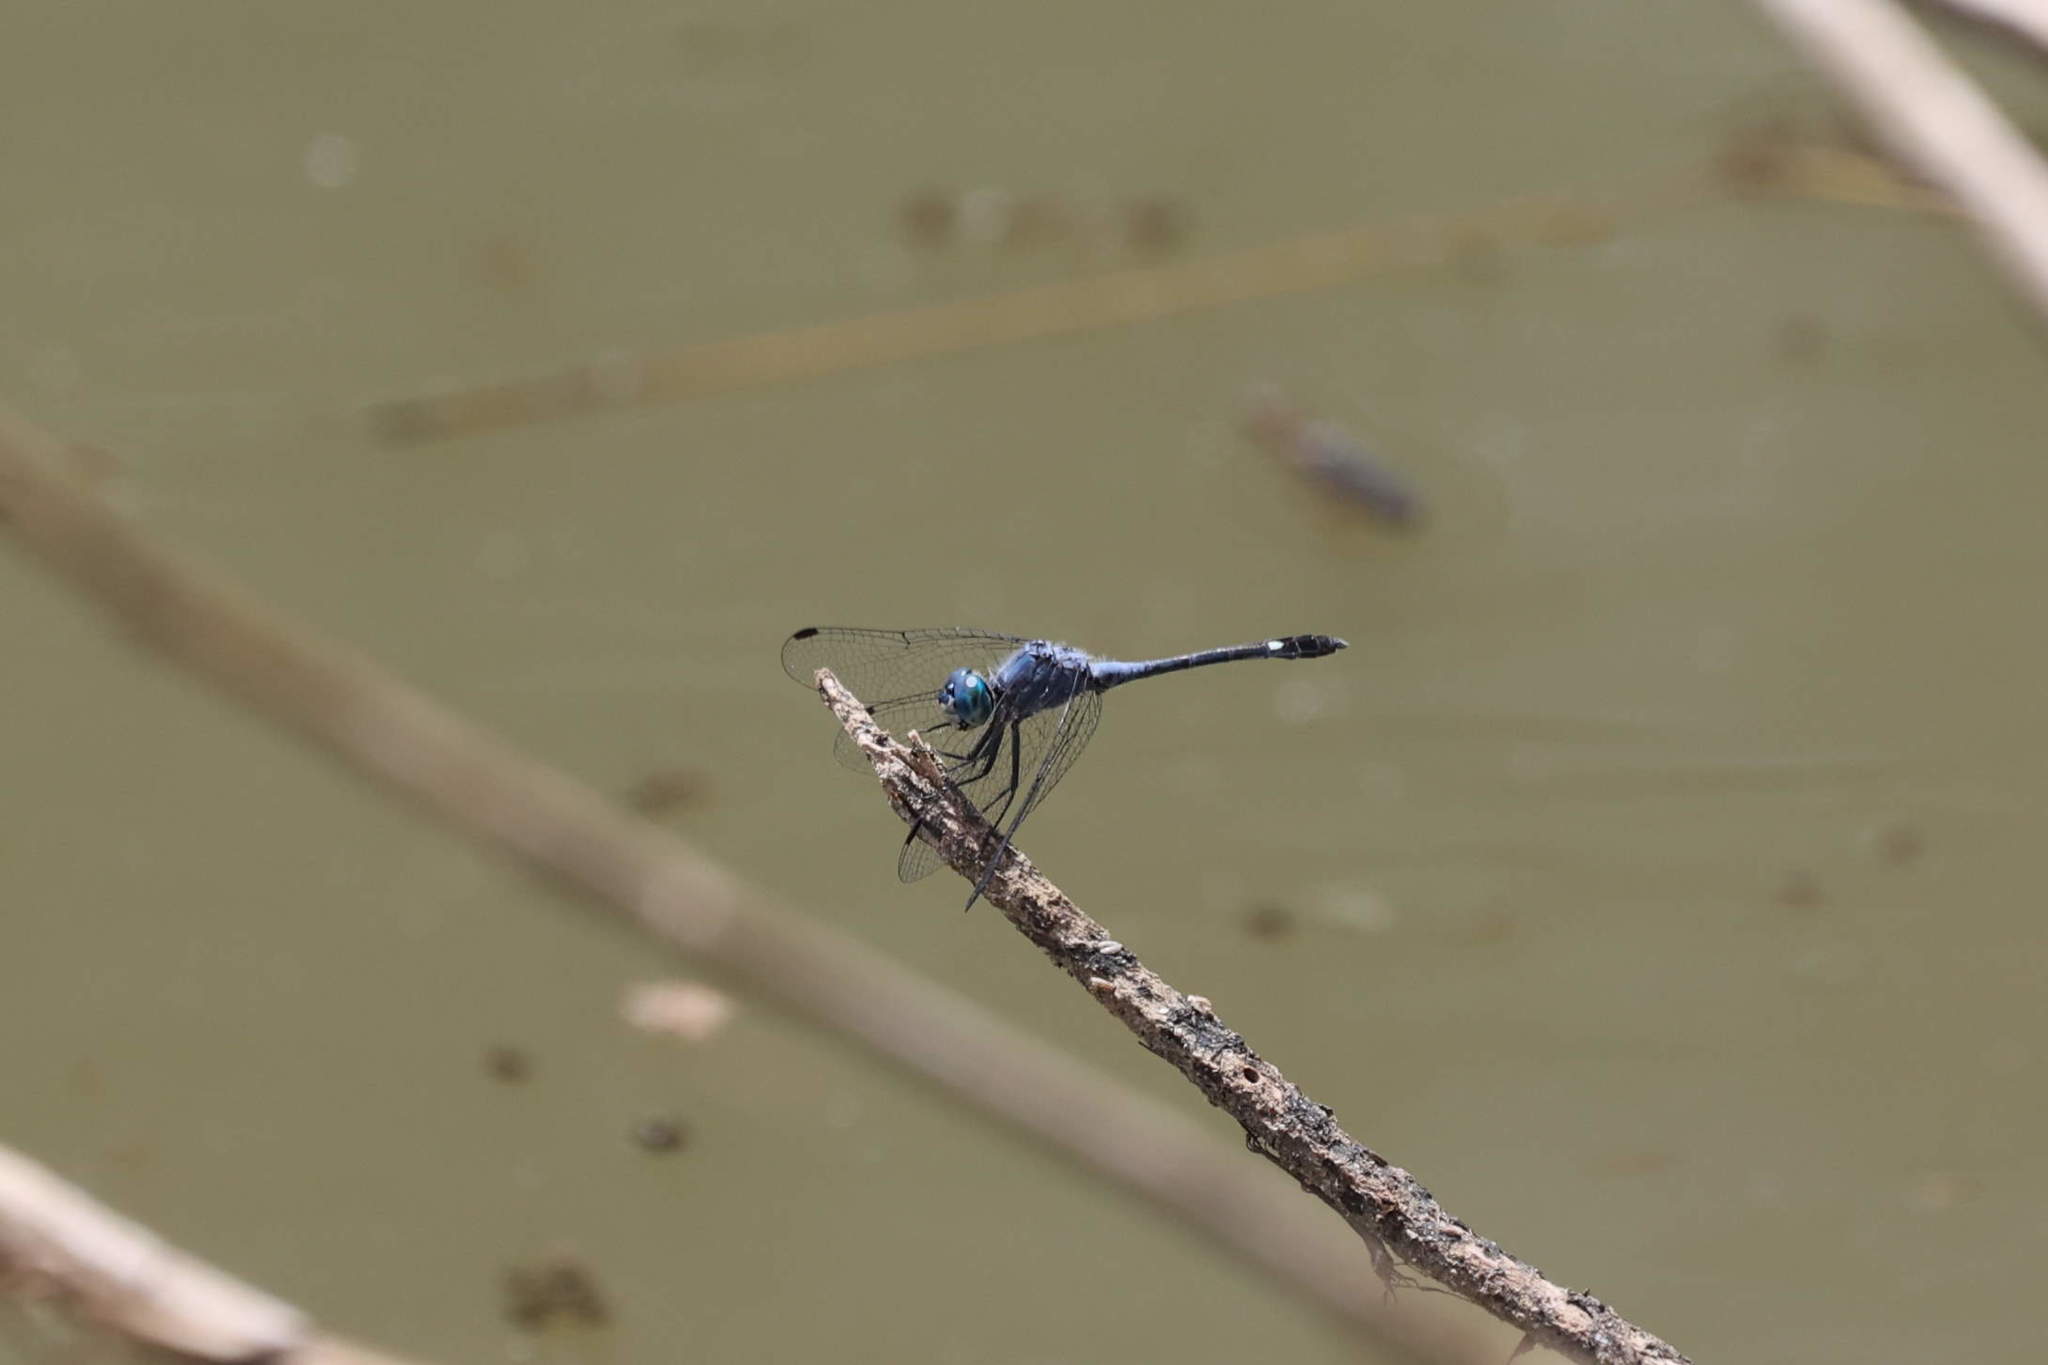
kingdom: Animalia
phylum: Arthropoda
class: Insecta
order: Odonata
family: Libellulidae
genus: Micrathyria
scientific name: Micrathyria aequalis
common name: Spot-tailed dasher
